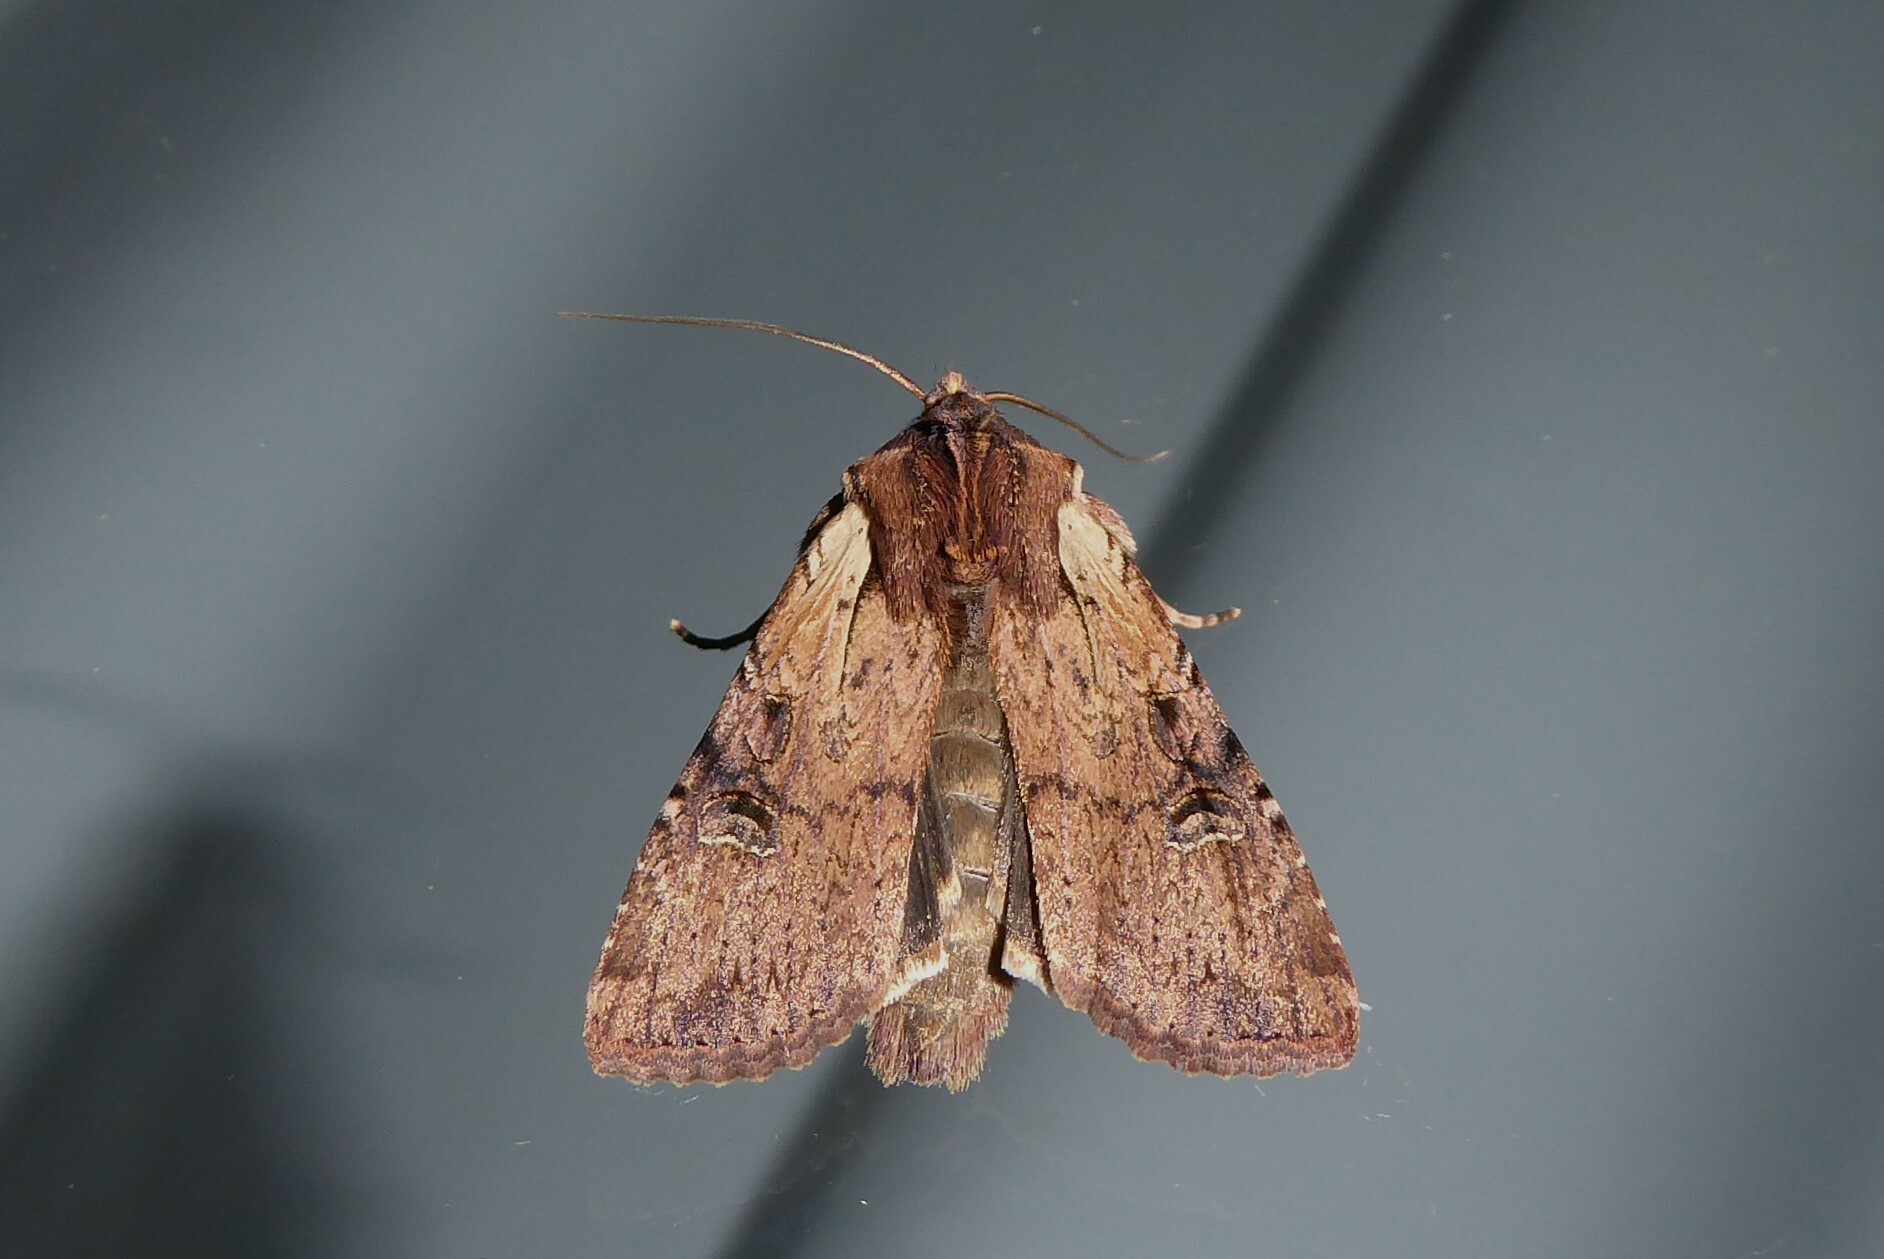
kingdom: Animalia
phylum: Arthropoda
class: Insecta
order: Lepidoptera
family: Noctuidae
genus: Ichneutica
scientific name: Ichneutica omoplaca
